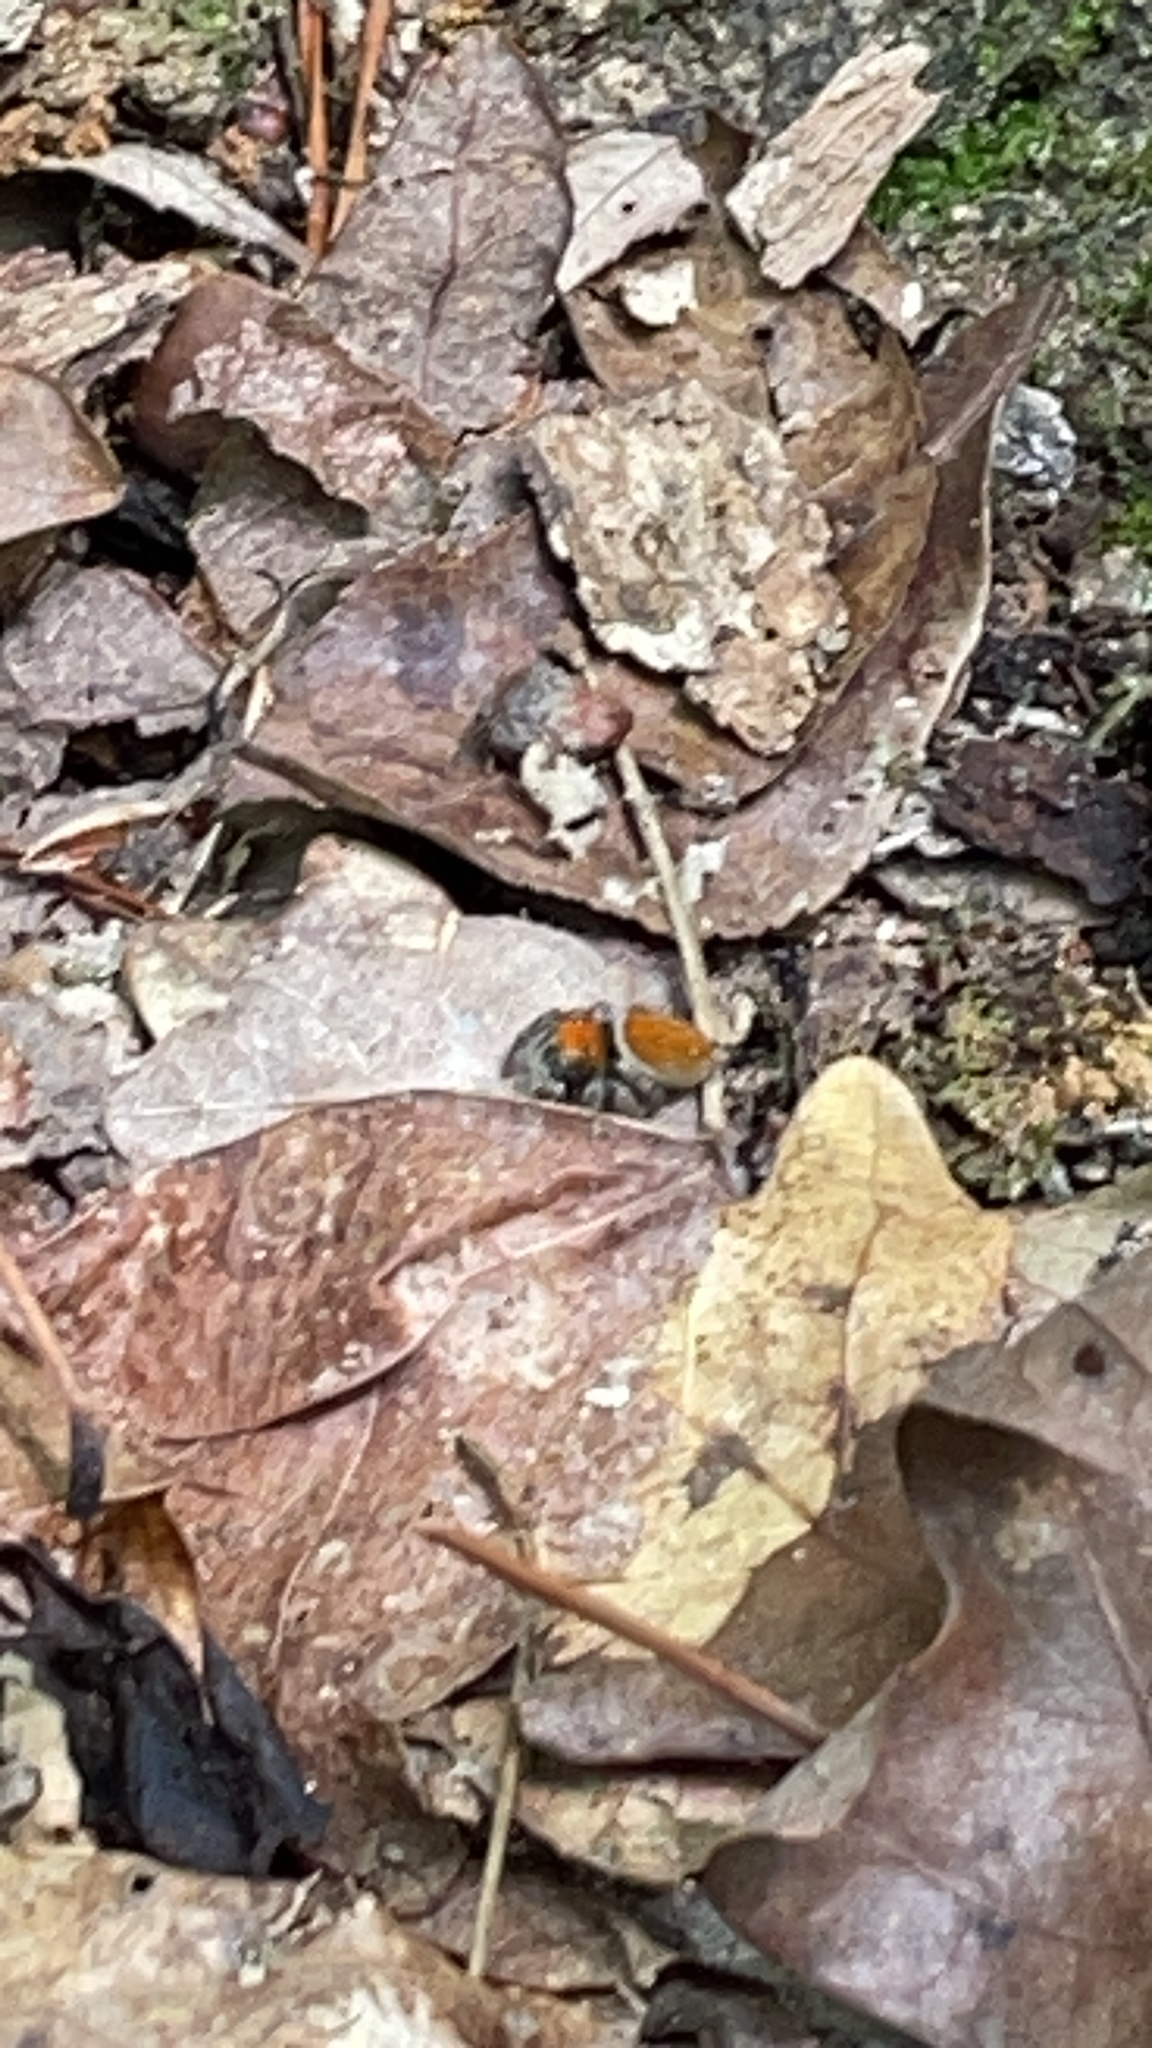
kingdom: Animalia
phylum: Arthropoda
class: Arachnida
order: Araneae
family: Salticidae
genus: Phidippus
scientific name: Phidippus whitmani
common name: Whitman's jumping spider
